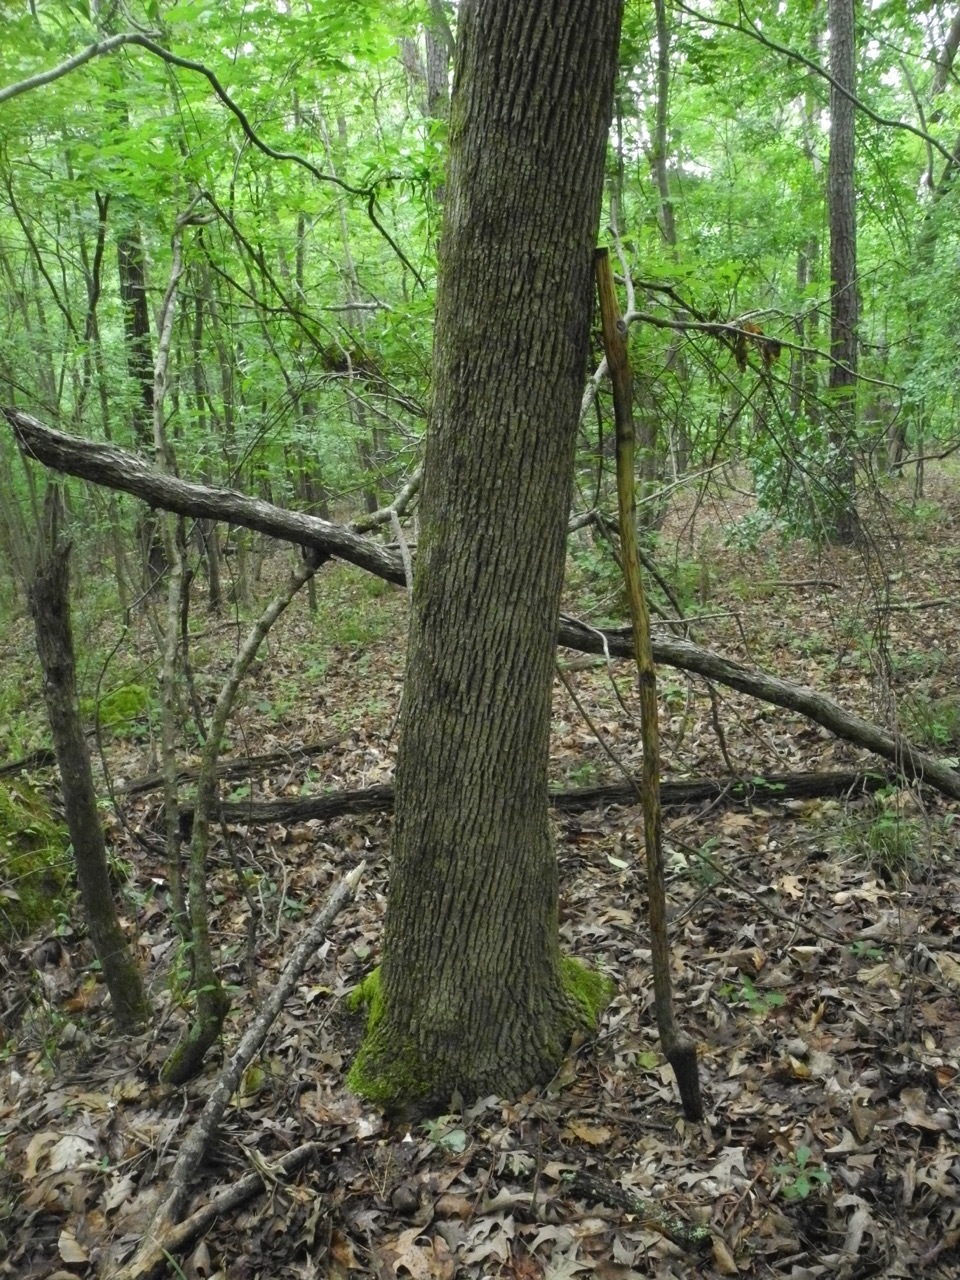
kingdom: Plantae
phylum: Tracheophyta
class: Magnoliopsida
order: Lamiales
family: Oleaceae
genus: Fraxinus
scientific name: Fraxinus americana
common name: White ash
